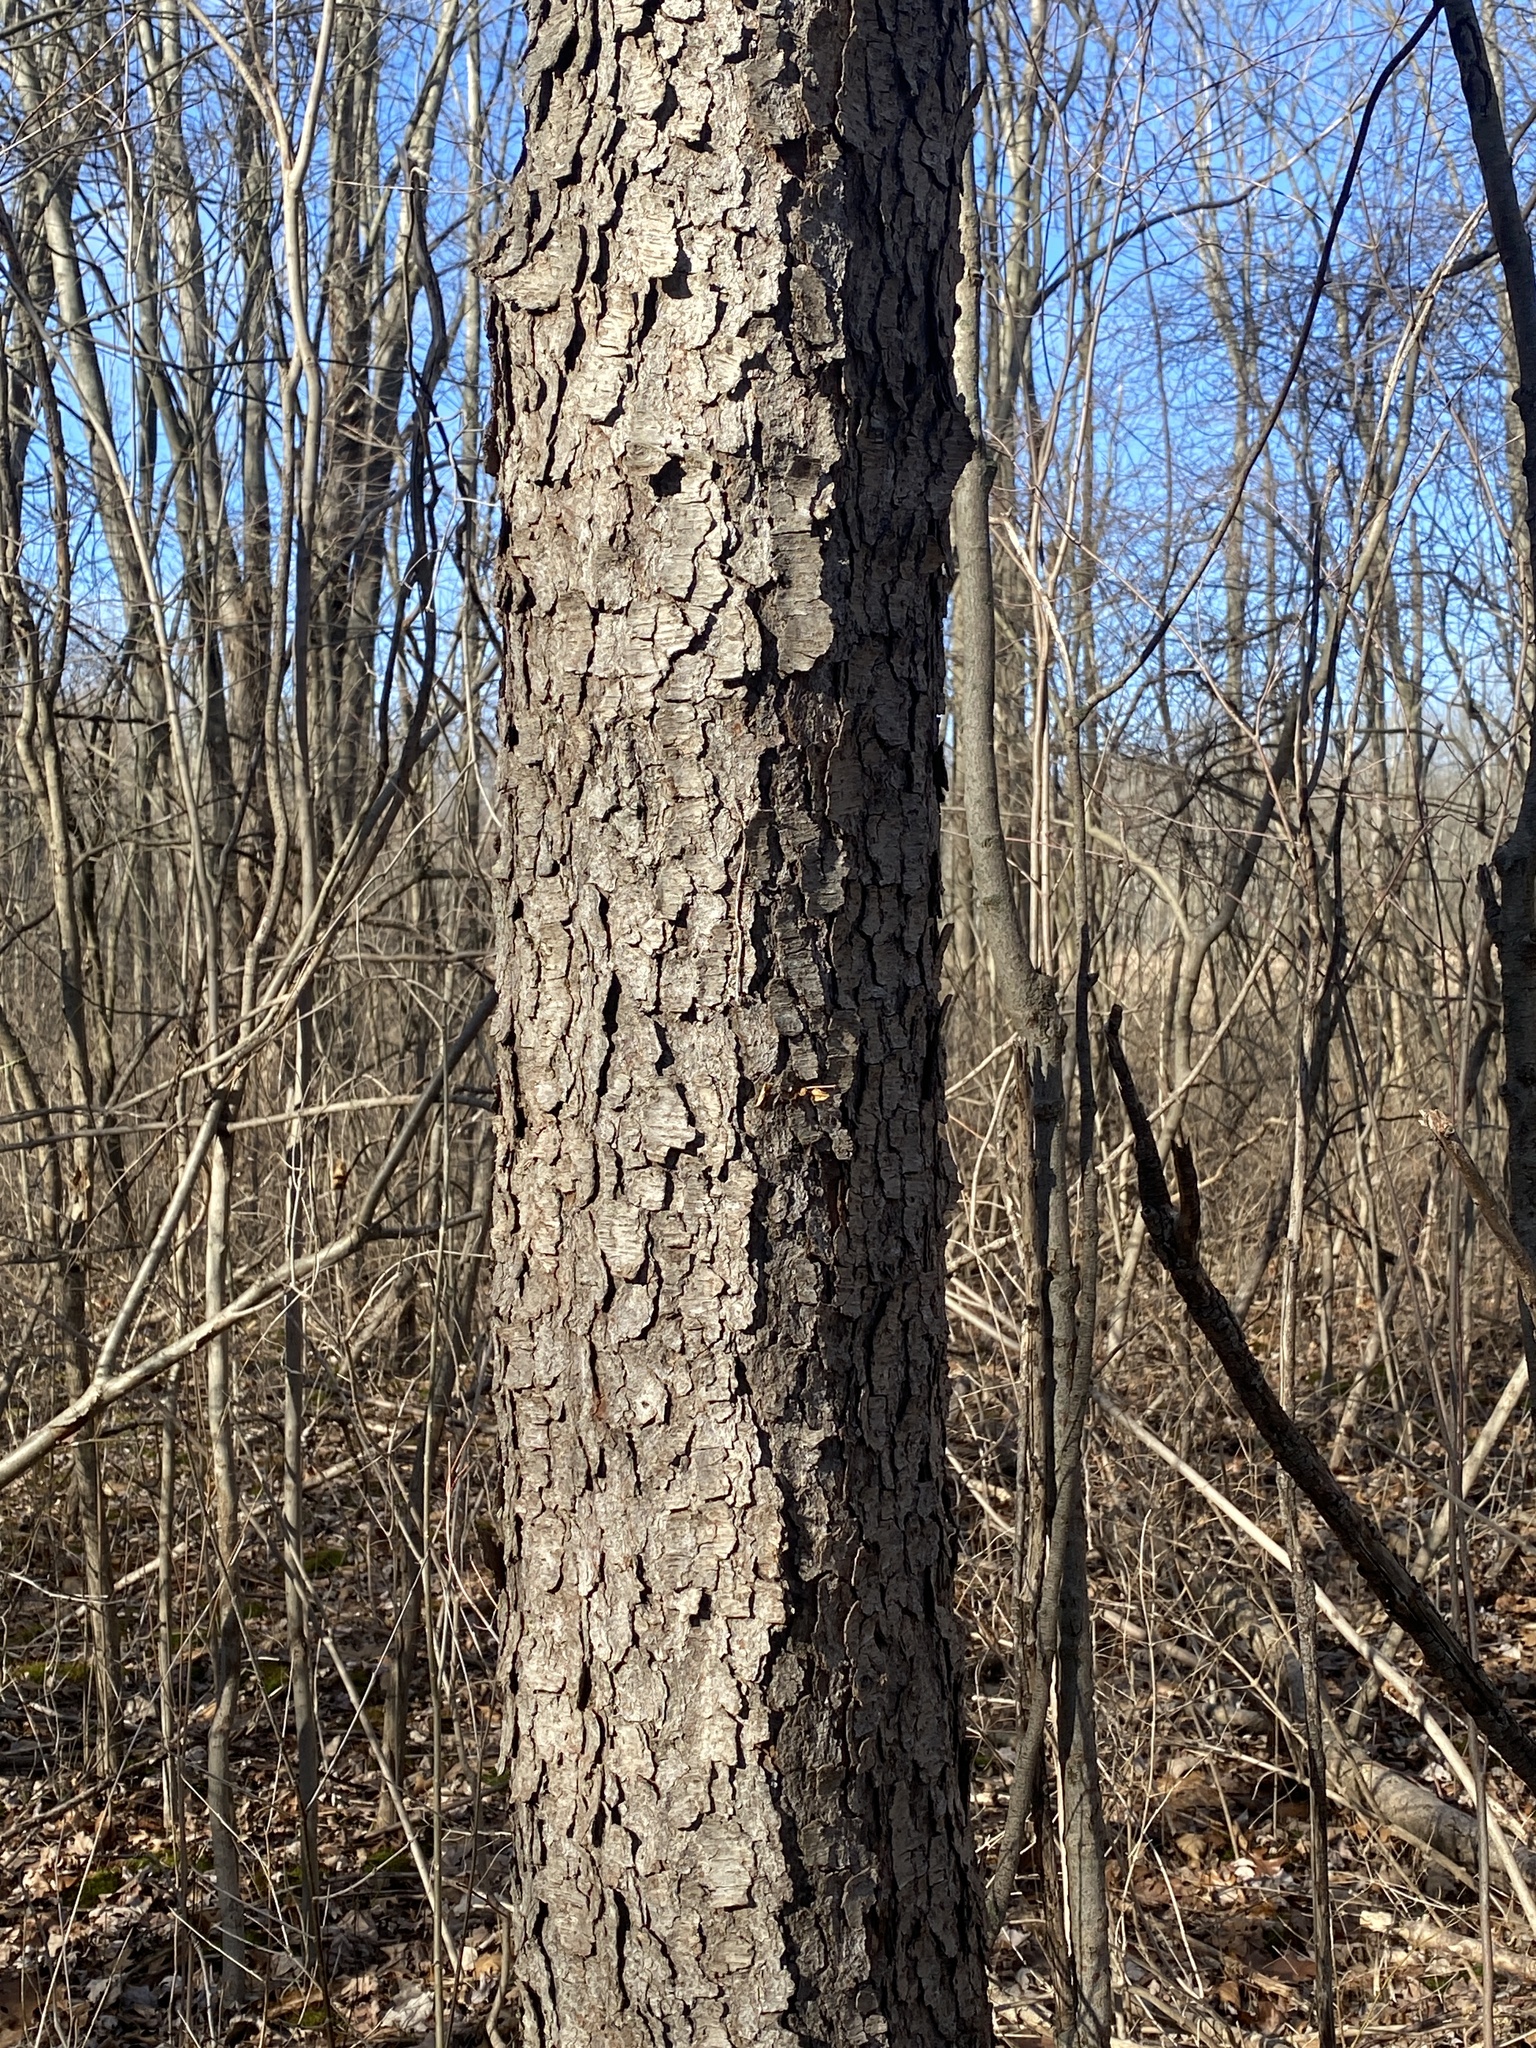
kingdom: Plantae
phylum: Tracheophyta
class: Magnoliopsida
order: Rosales
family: Rosaceae
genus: Prunus
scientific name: Prunus serotina
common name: Black cherry
